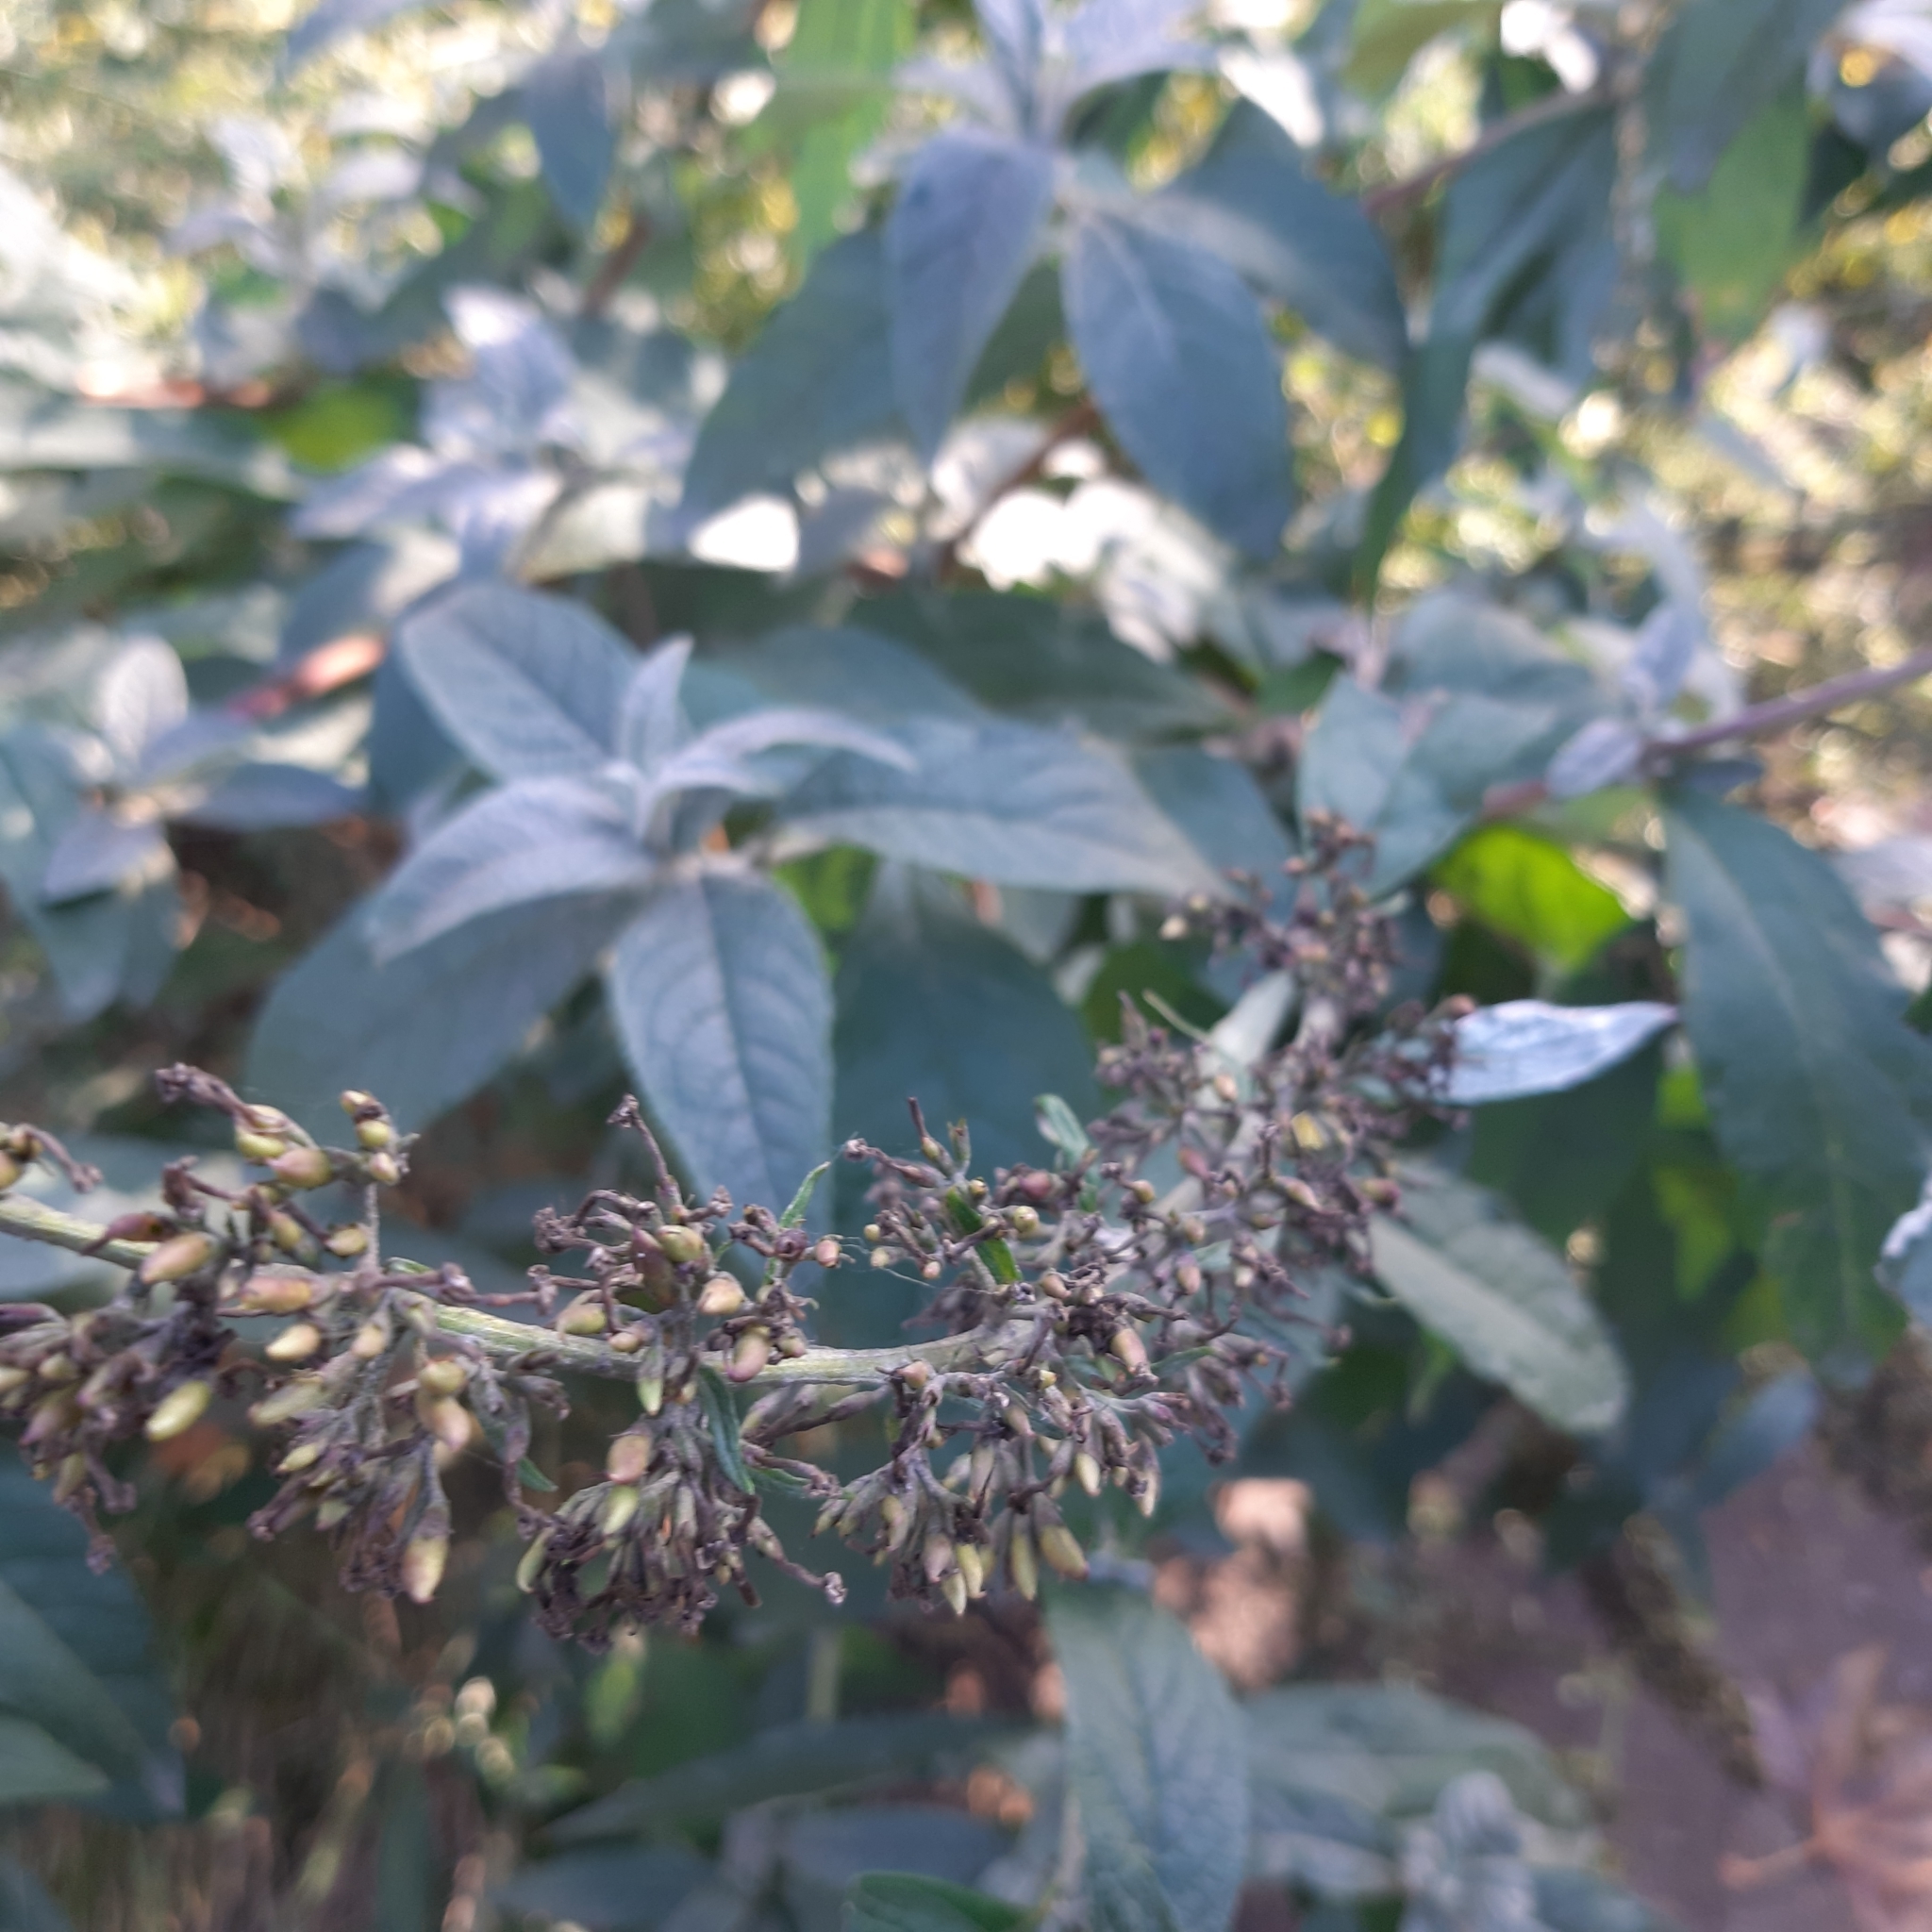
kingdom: Plantae
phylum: Tracheophyta
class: Magnoliopsida
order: Lamiales
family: Scrophulariaceae
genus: Buddleja
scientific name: Buddleja davidii
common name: Butterfly-bush
